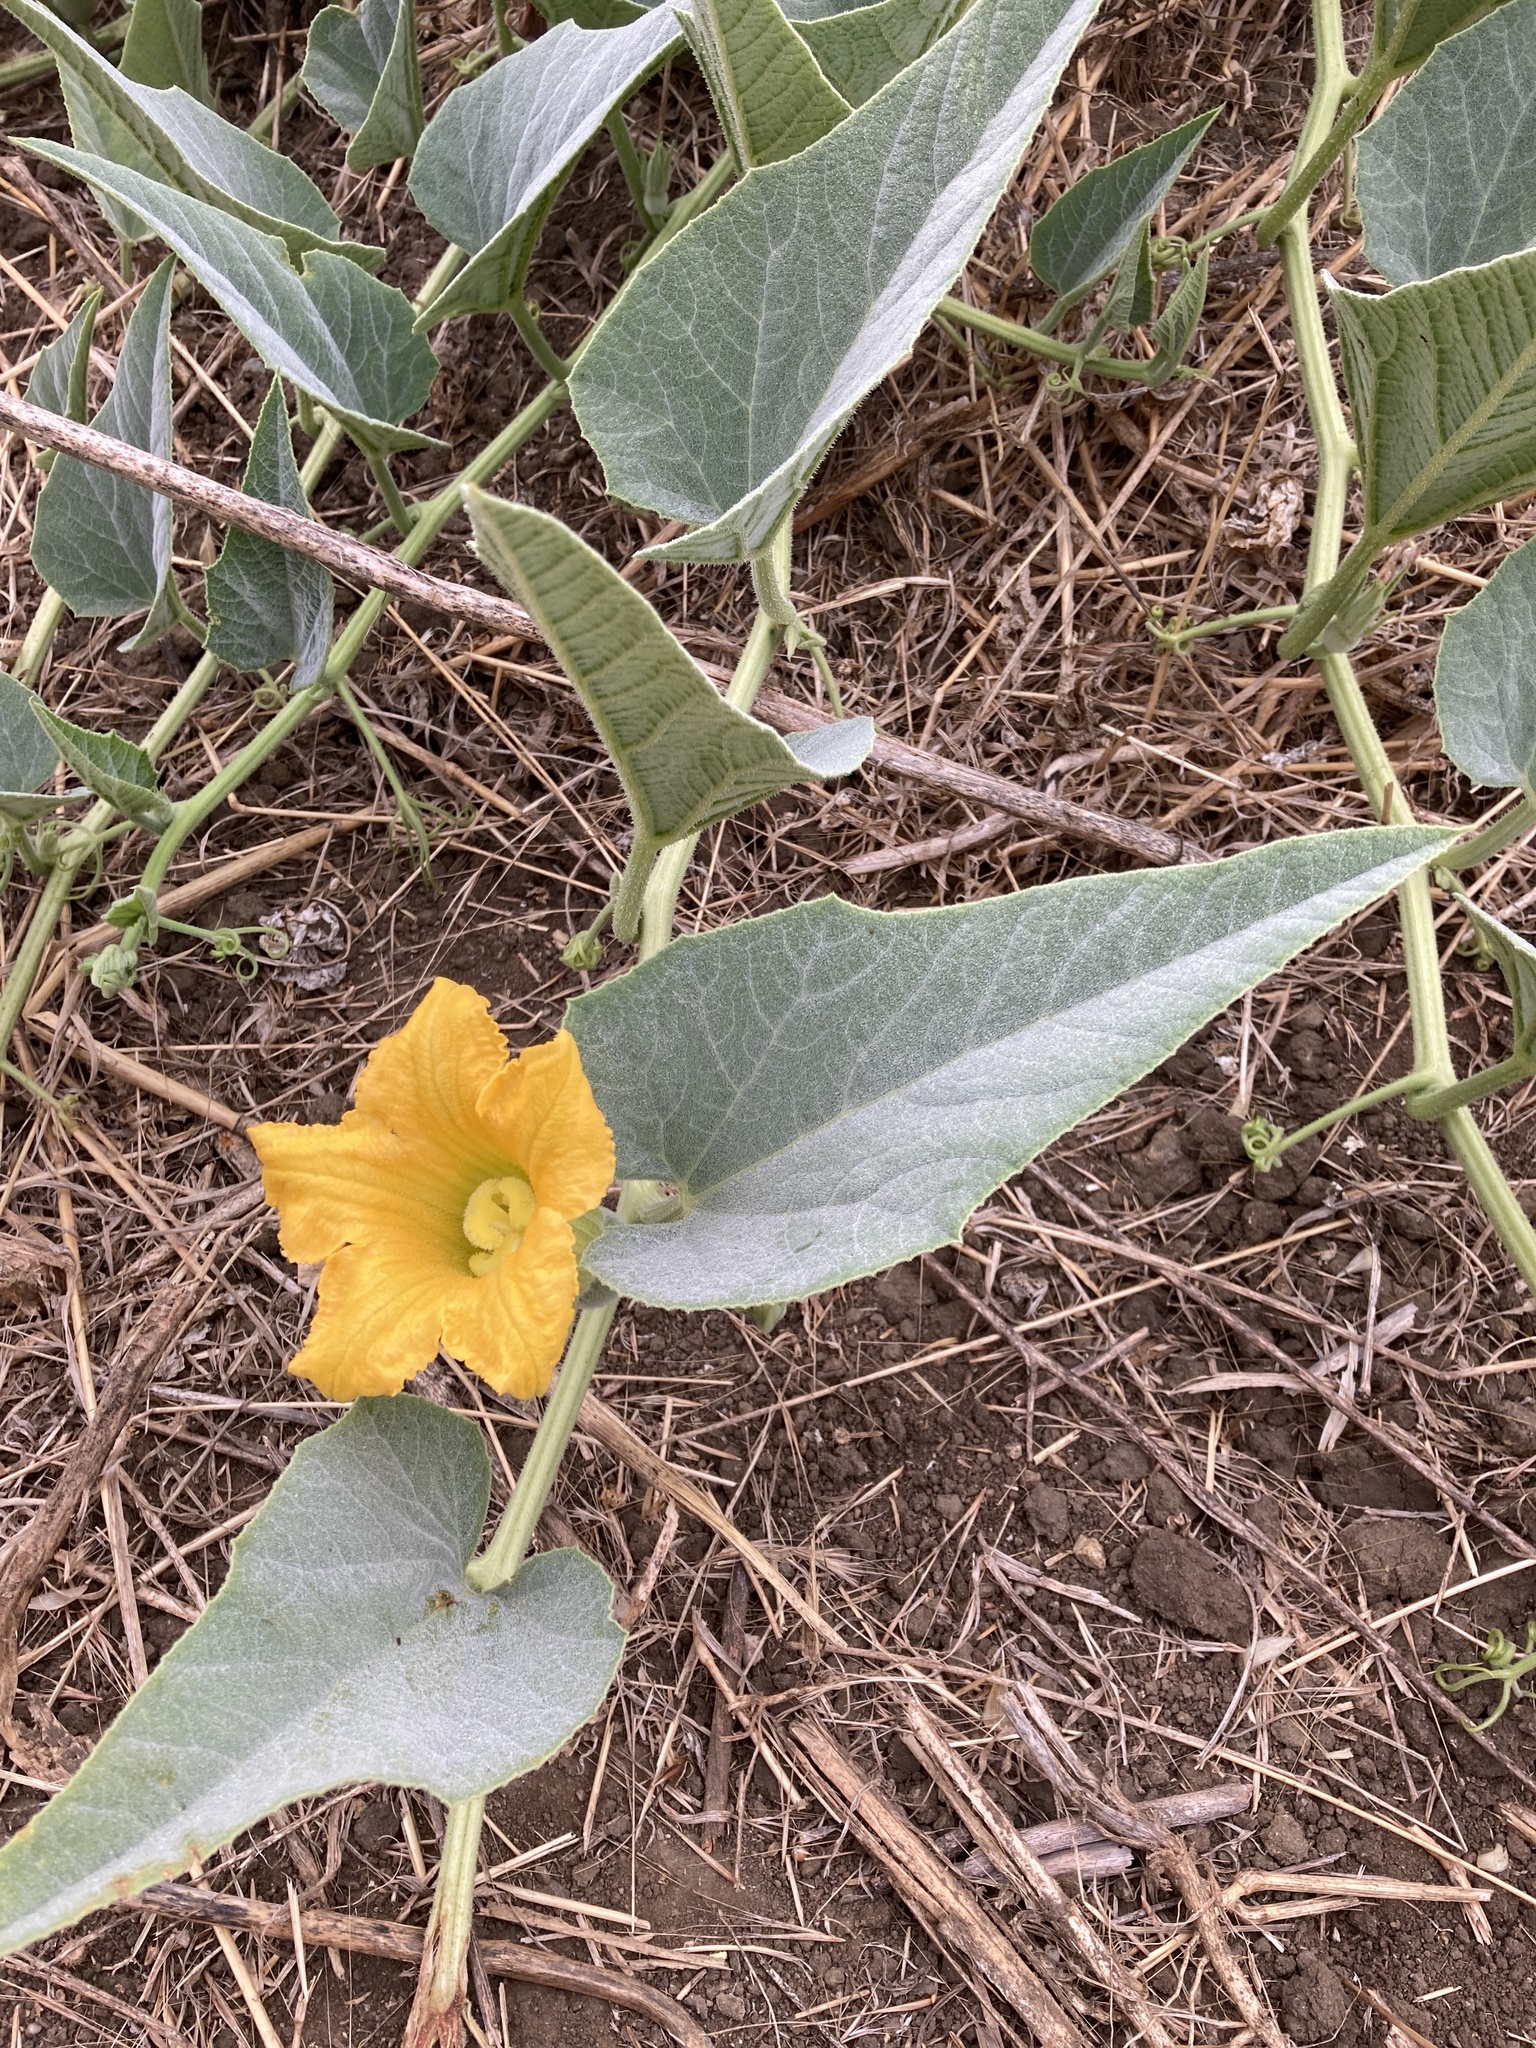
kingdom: Plantae
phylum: Tracheophyta
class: Magnoliopsida
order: Cucurbitales
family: Cucurbitaceae
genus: Cucurbita
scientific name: Cucurbita foetidissima
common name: Buffalo gourd
